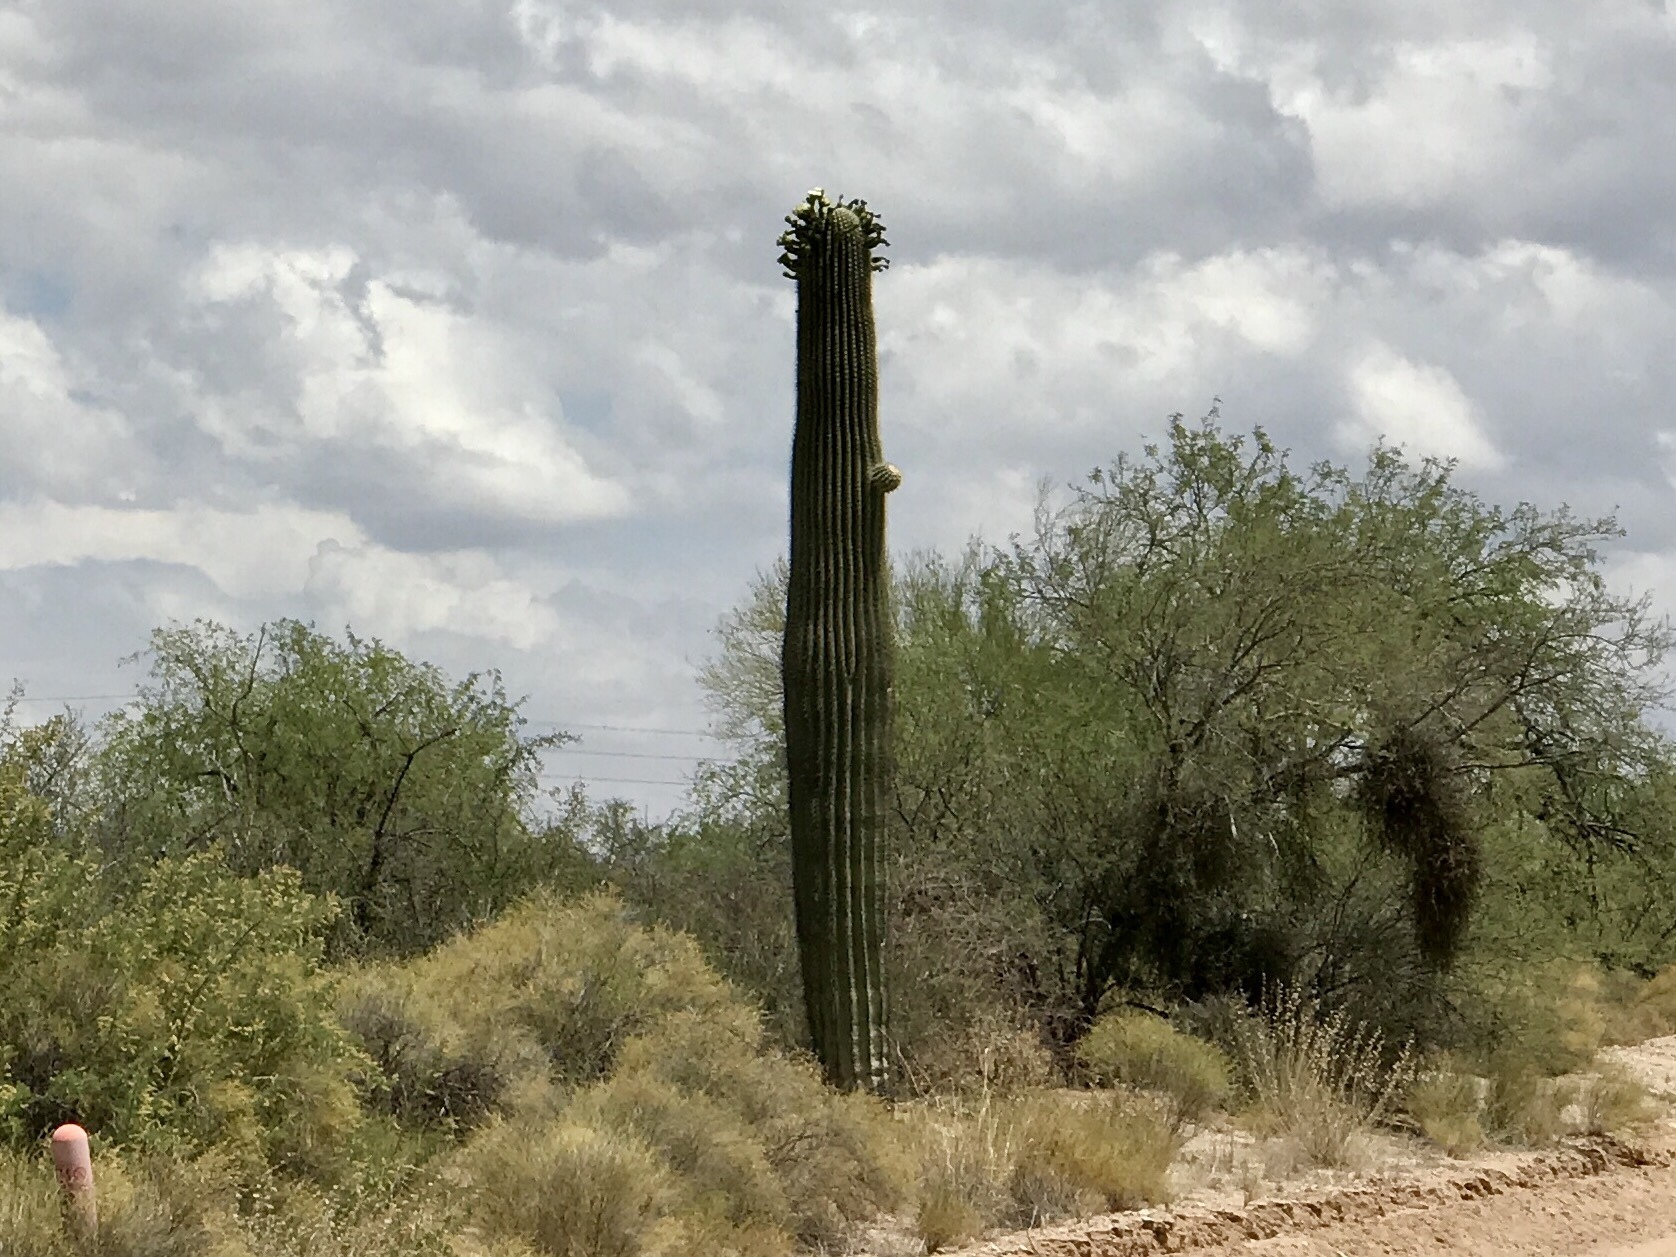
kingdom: Plantae
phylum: Tracheophyta
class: Magnoliopsida
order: Caryophyllales
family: Cactaceae
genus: Carnegiea
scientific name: Carnegiea gigantea
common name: Saguaro
